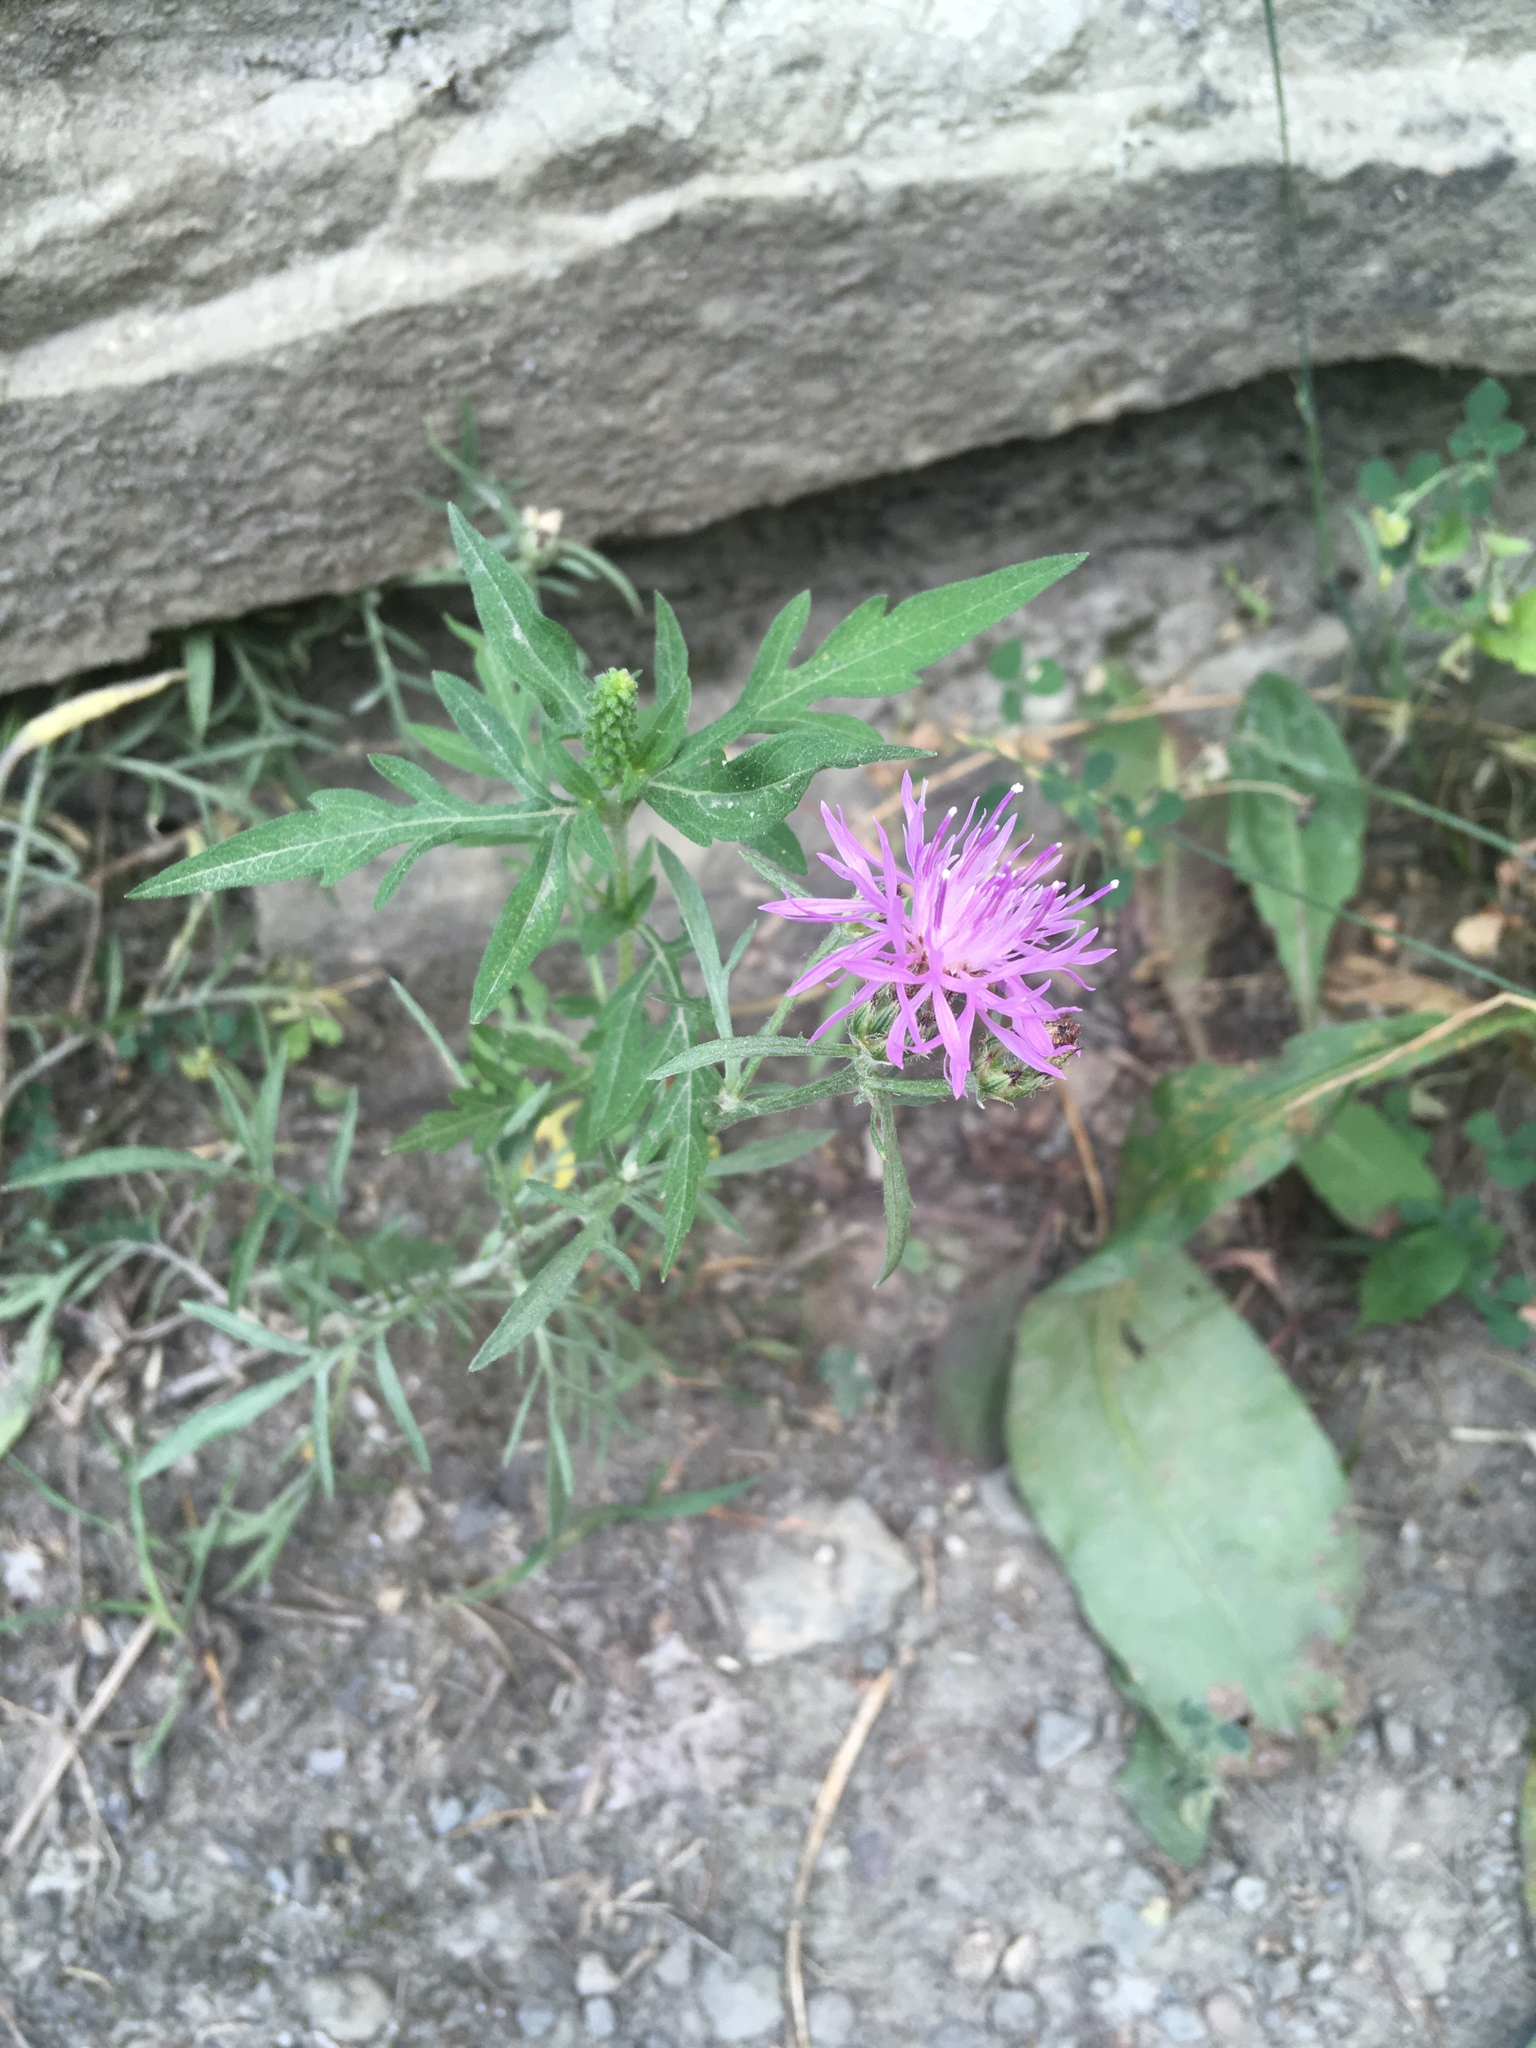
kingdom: Plantae
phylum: Tracheophyta
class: Magnoliopsida
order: Asterales
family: Asteraceae
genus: Centaurea
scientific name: Centaurea stoebe
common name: Spotted knapweed
